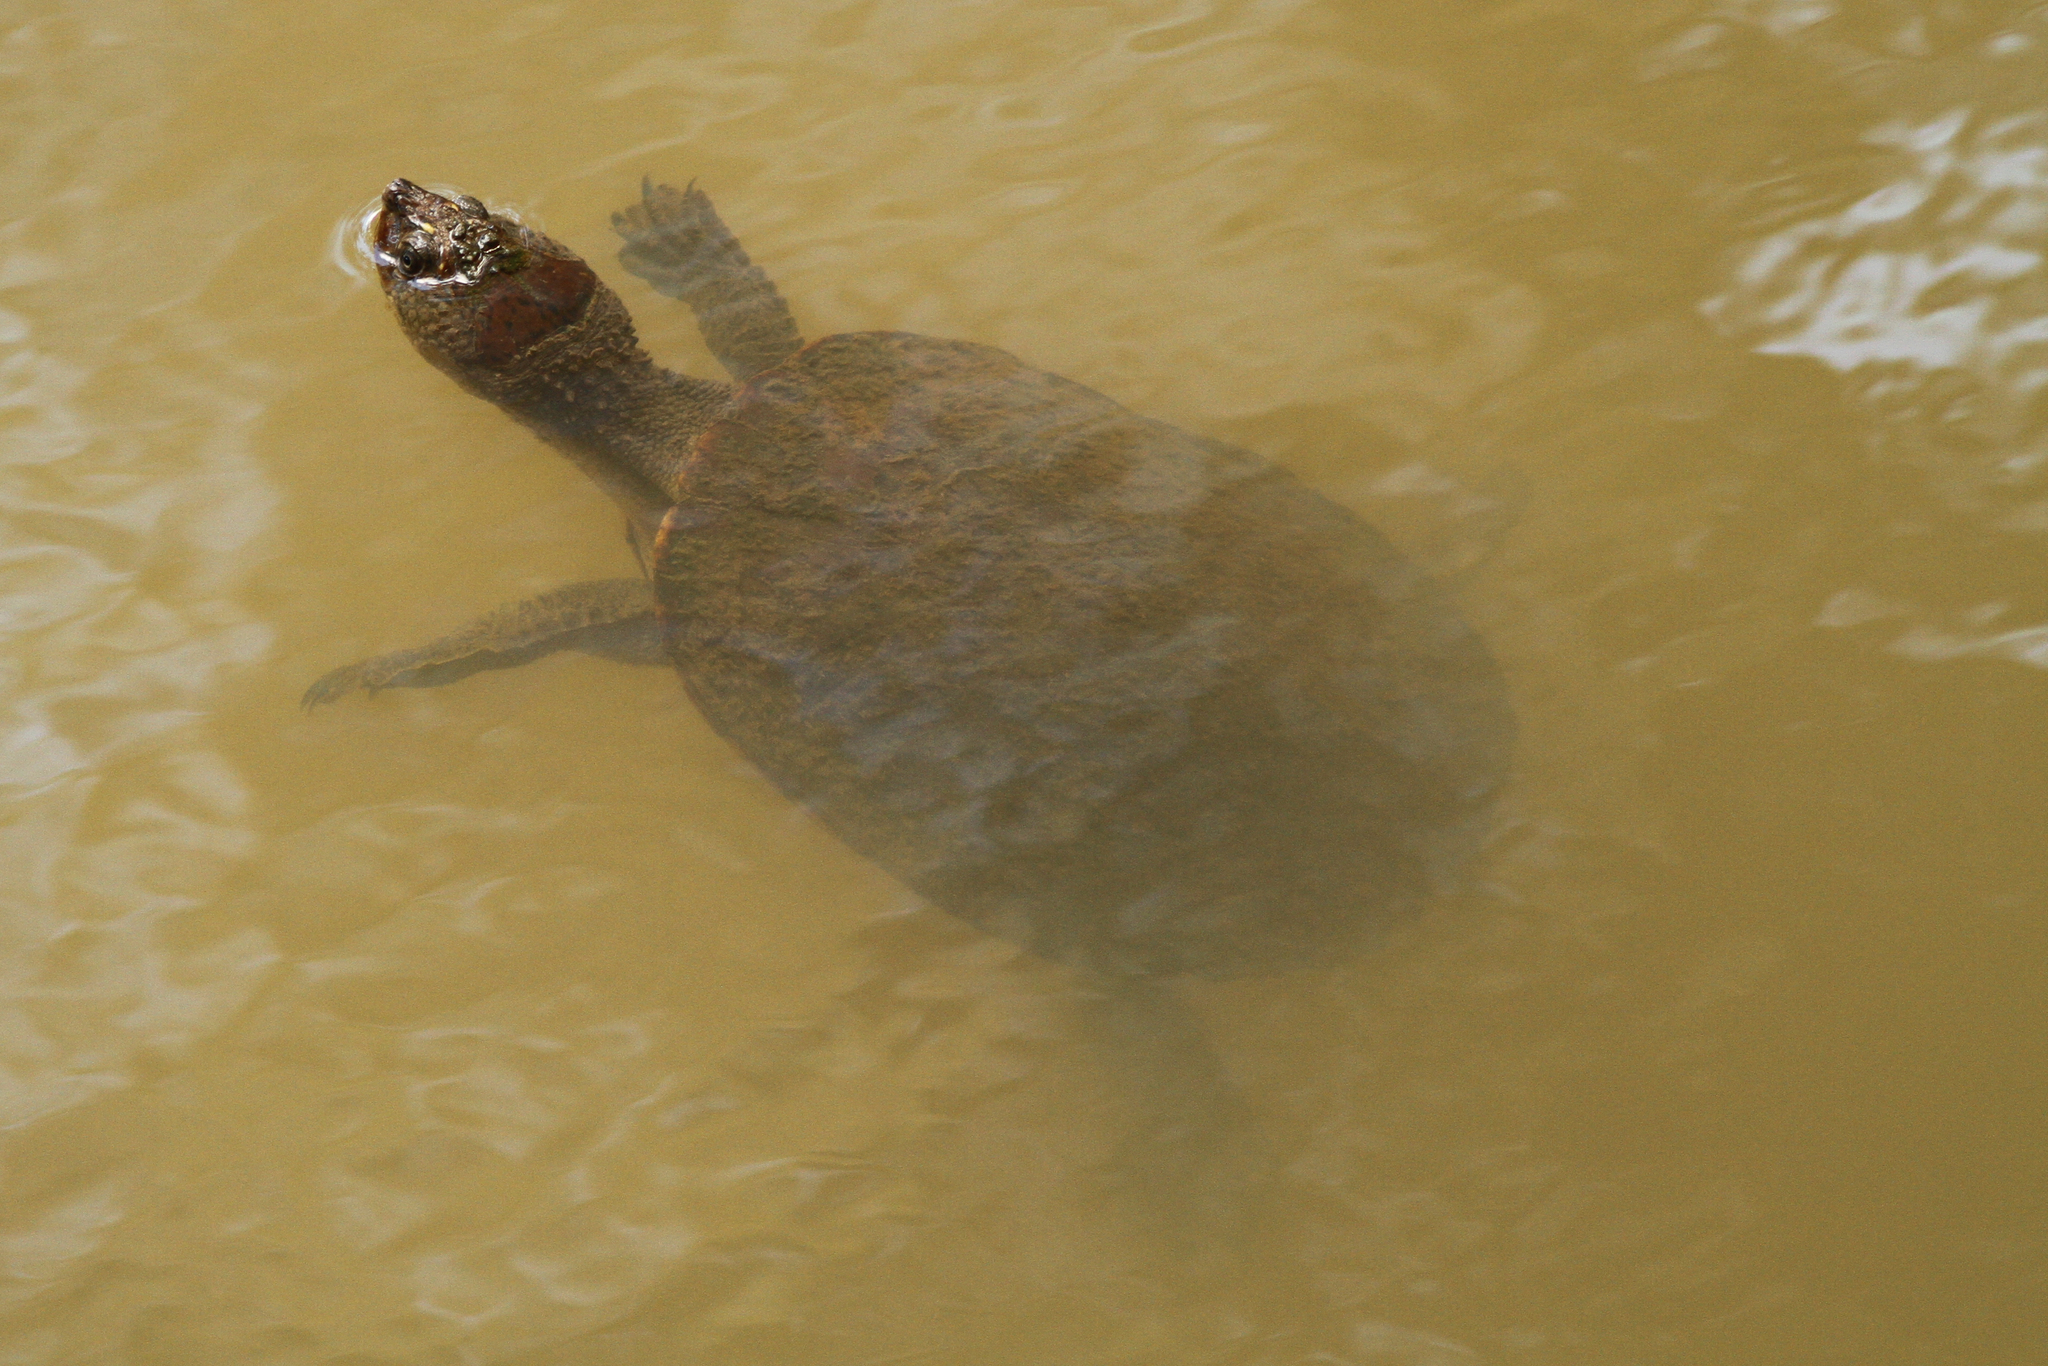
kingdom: Animalia
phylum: Chordata
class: Testudines
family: Chelidae
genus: Myuchelys
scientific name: Myuchelys latisternum
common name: Serrated snapping turtle
